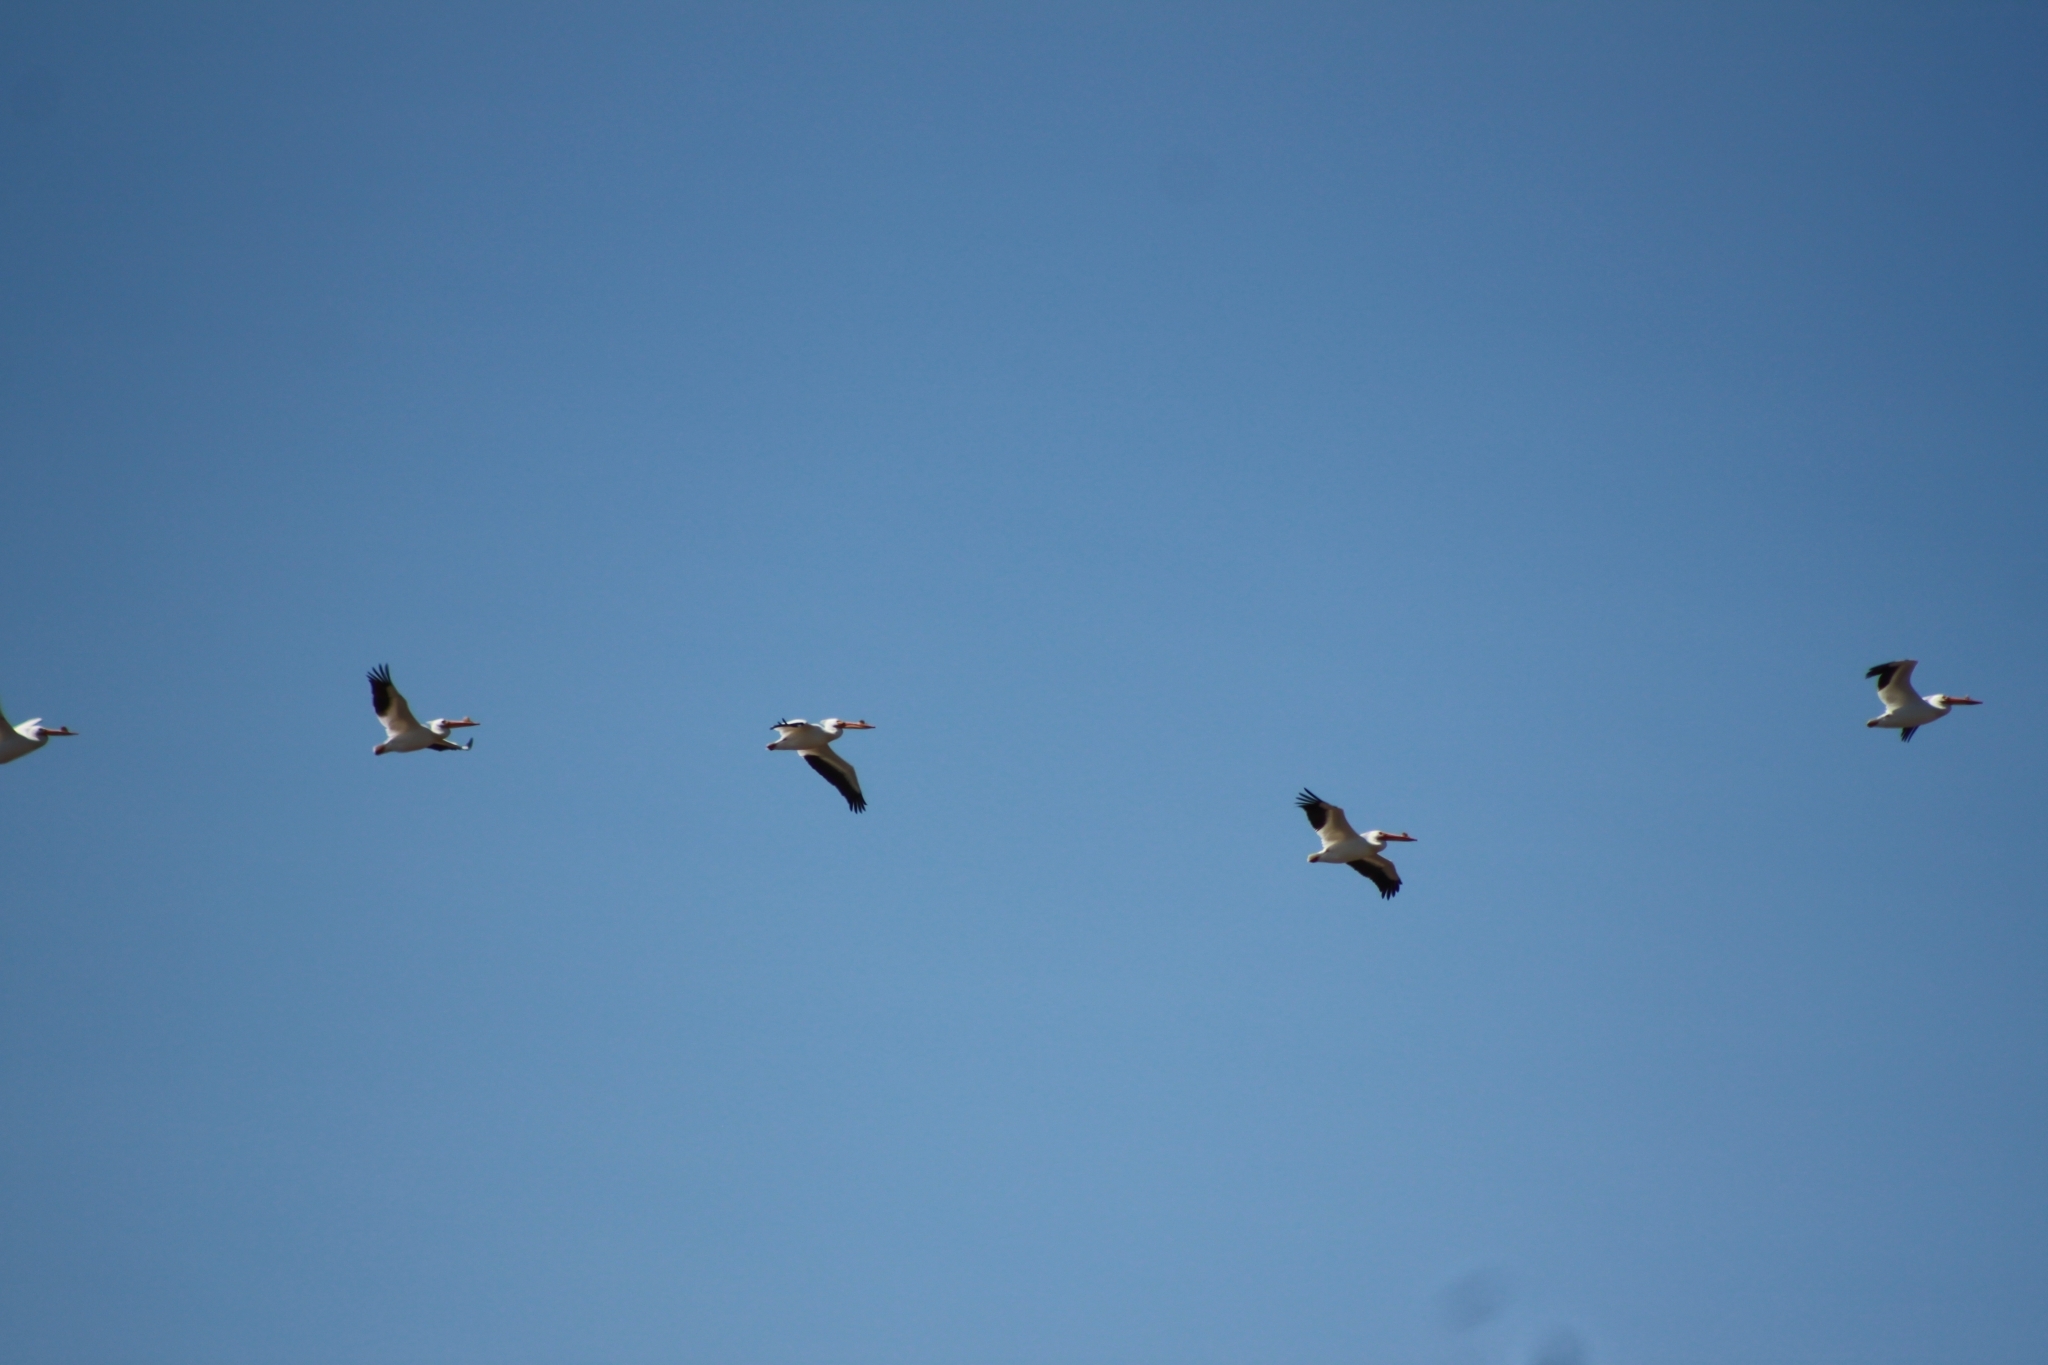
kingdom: Animalia
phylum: Chordata
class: Aves
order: Pelecaniformes
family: Pelecanidae
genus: Pelecanus
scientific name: Pelecanus erythrorhynchos
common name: American white pelican
